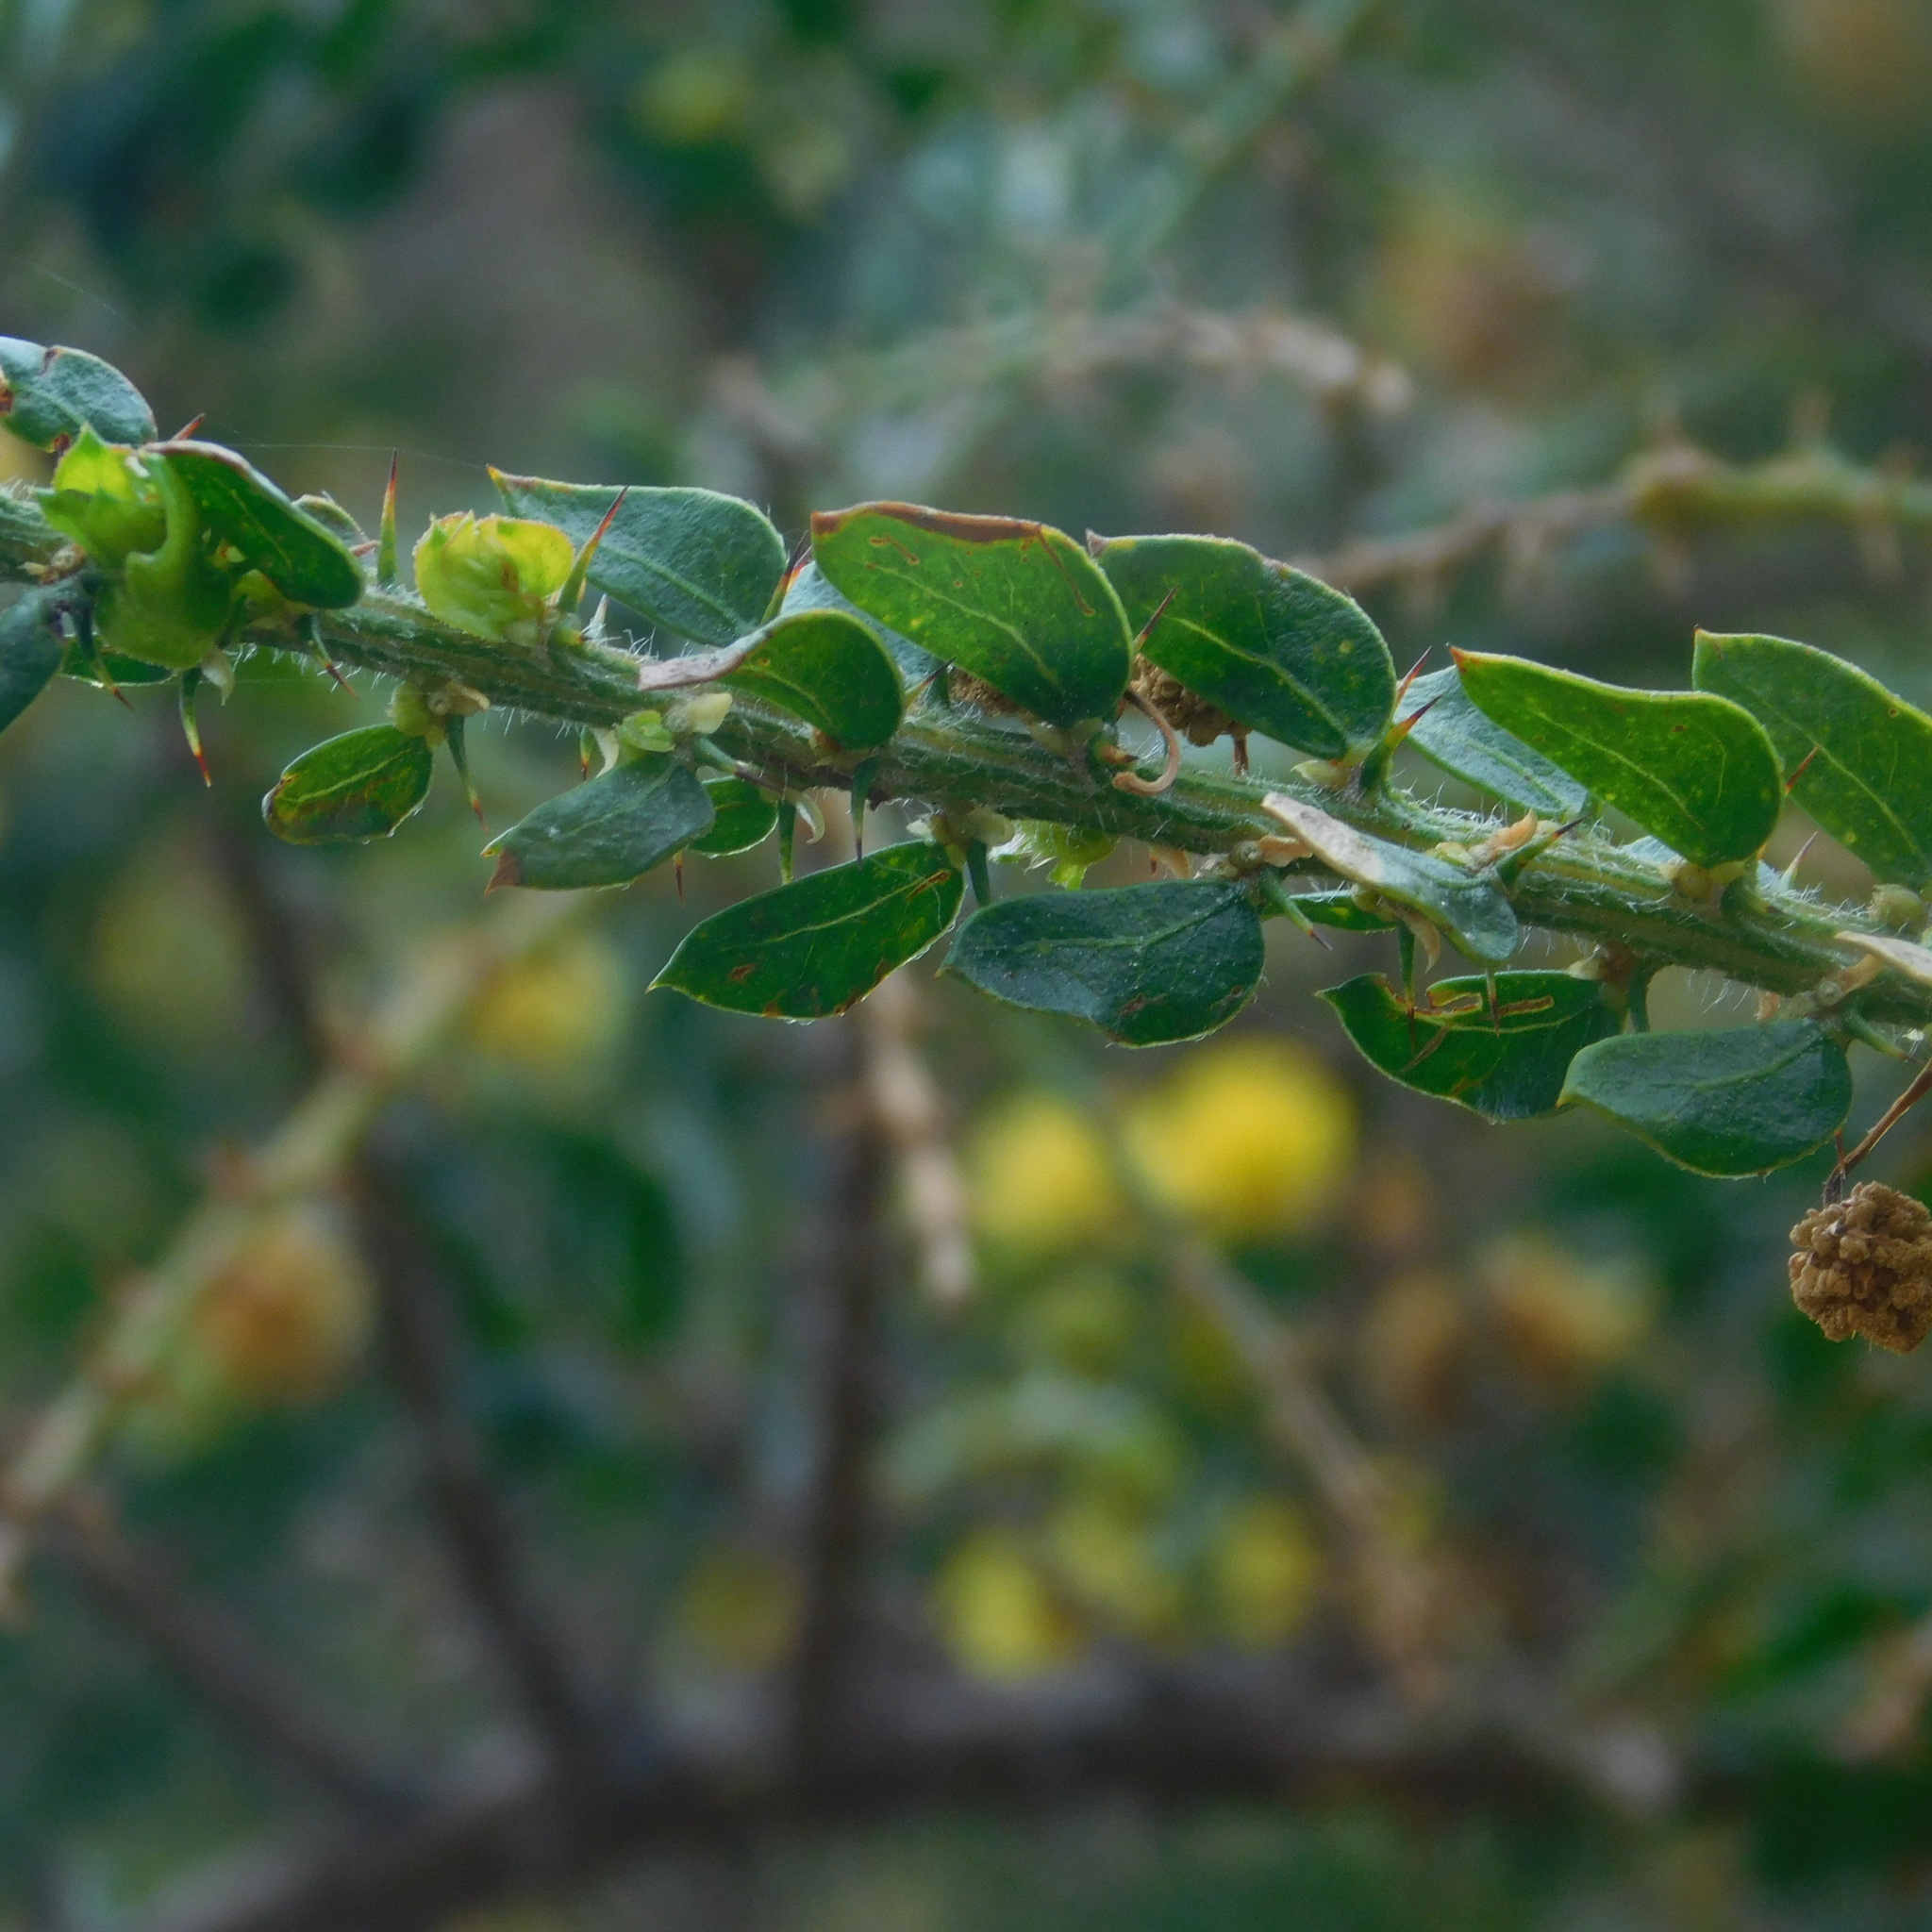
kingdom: Plantae
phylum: Tracheophyta
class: Magnoliopsida
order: Fabales
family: Fabaceae
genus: Acacia
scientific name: Acacia paradoxa
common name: Paradox acacia
